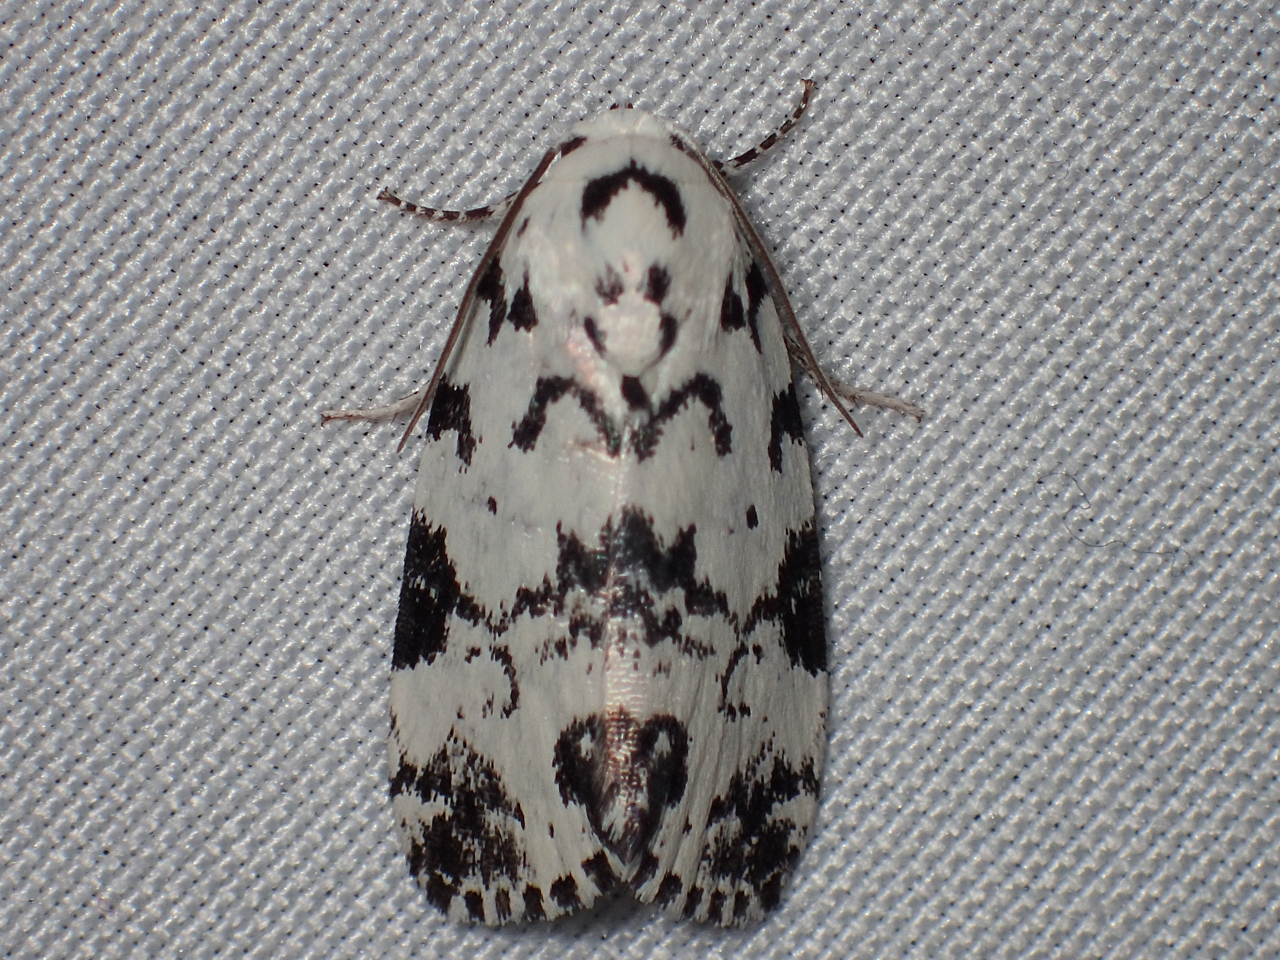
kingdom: Animalia
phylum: Arthropoda
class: Insecta
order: Lepidoptera
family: Noctuidae
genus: Polygrammate
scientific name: Polygrammate hebraeicum
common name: Hebrew moth
